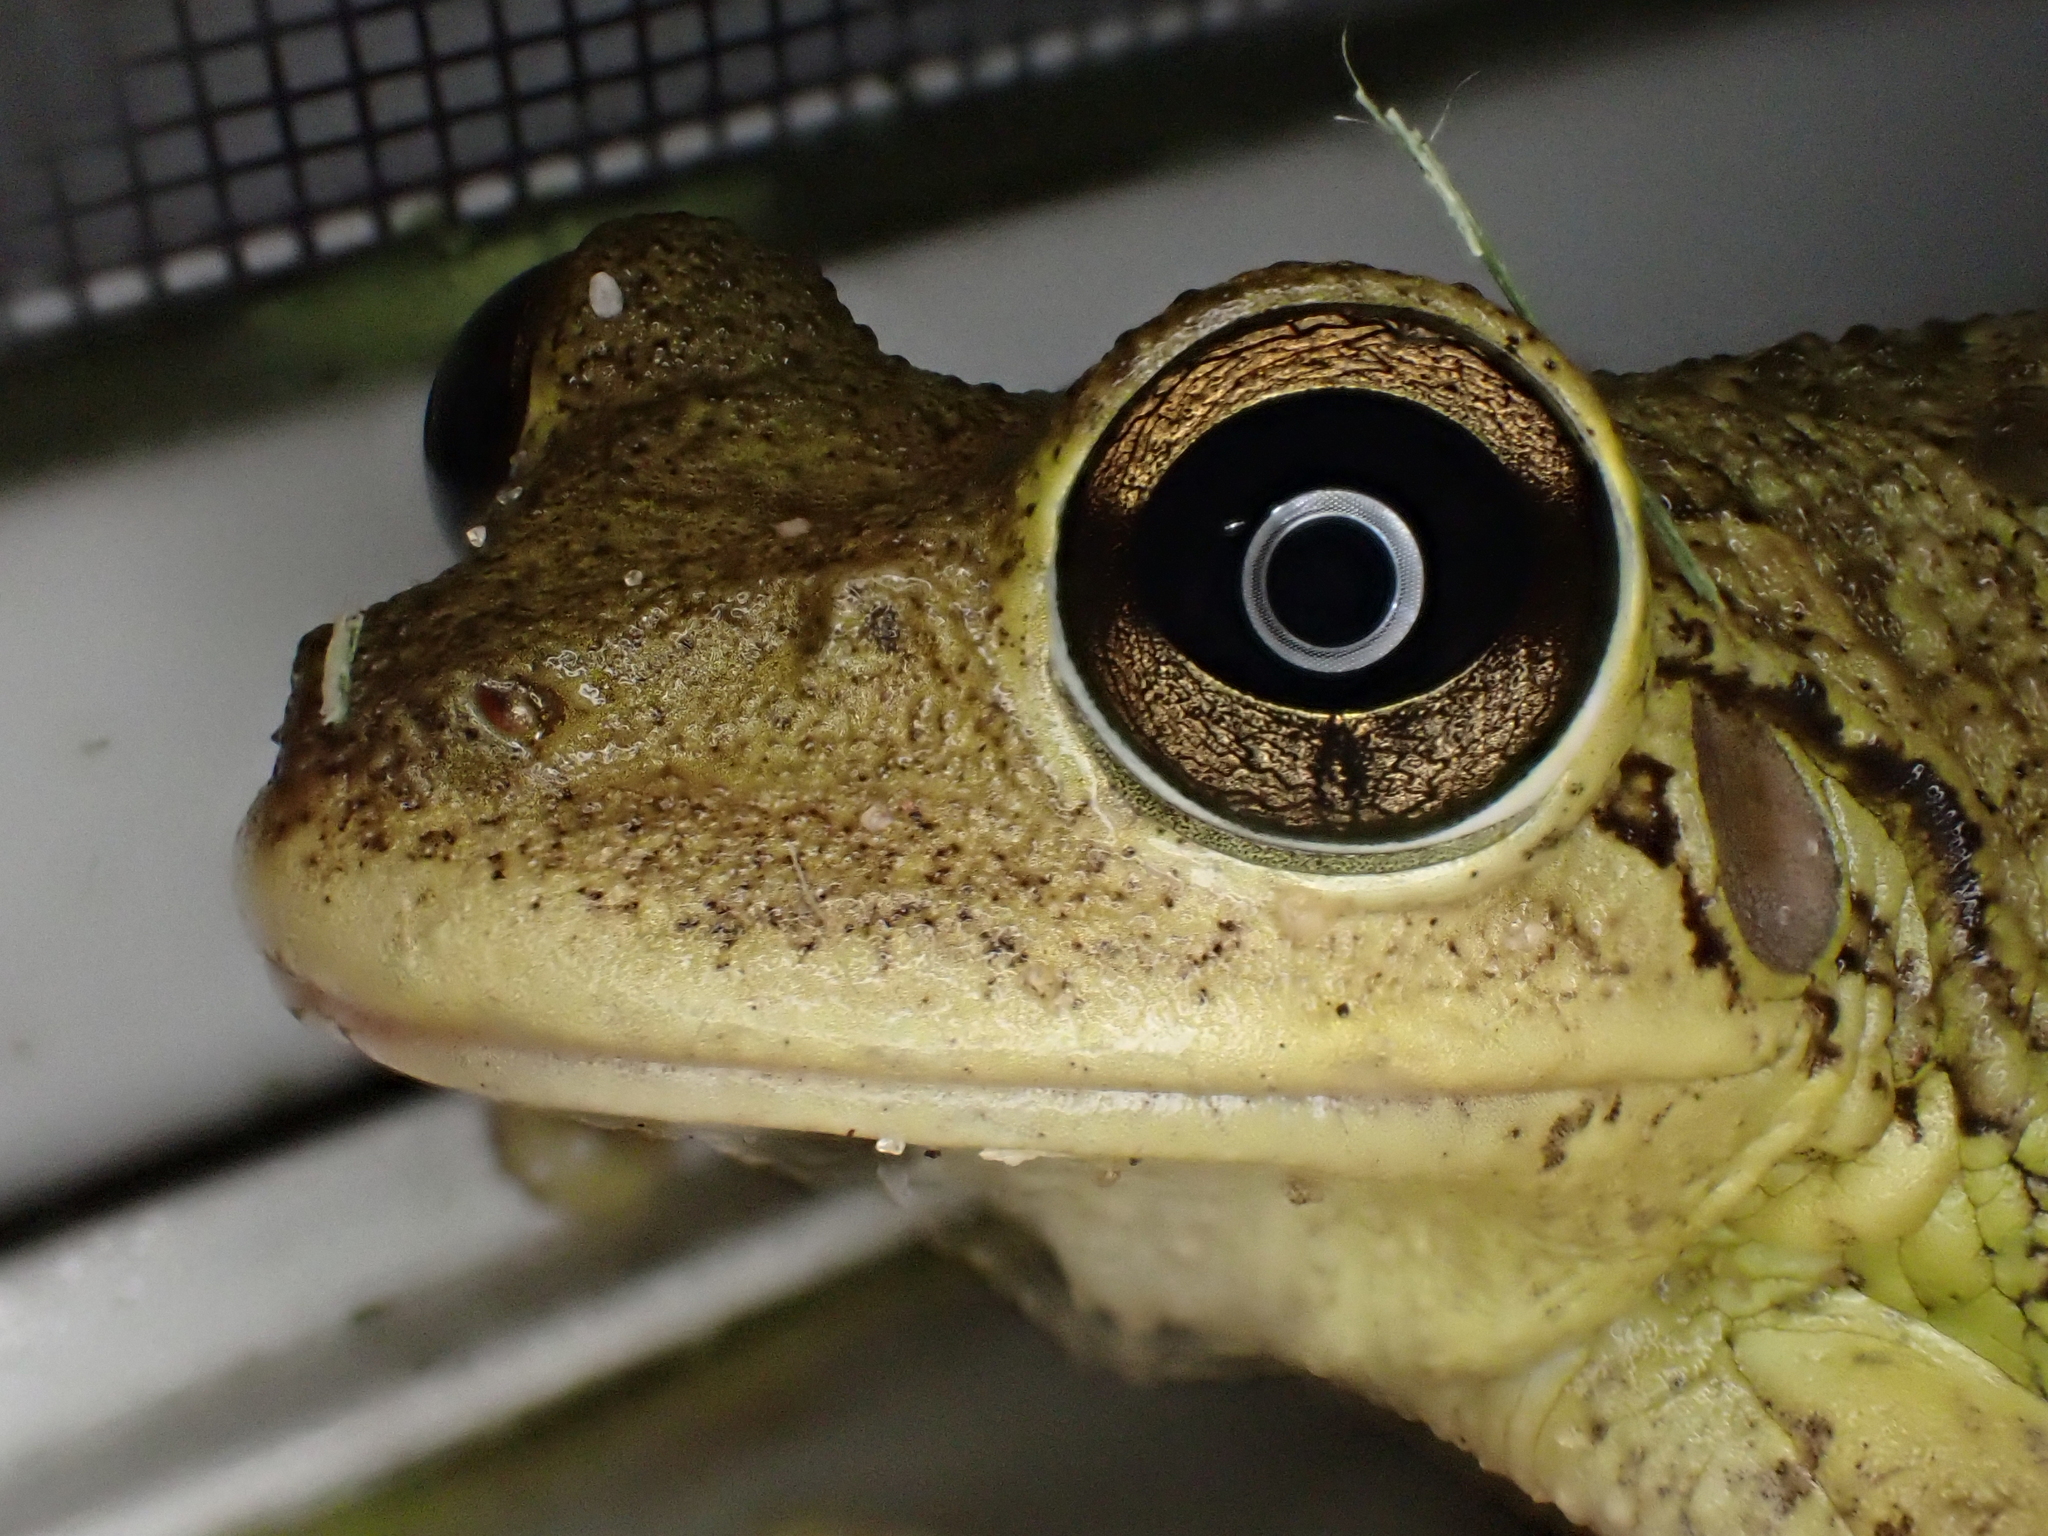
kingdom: Animalia
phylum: Chordata
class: Amphibia
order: Anura
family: Hylidae
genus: Osteopilus
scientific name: Osteopilus septentrionalis
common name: Cuban treefrog
